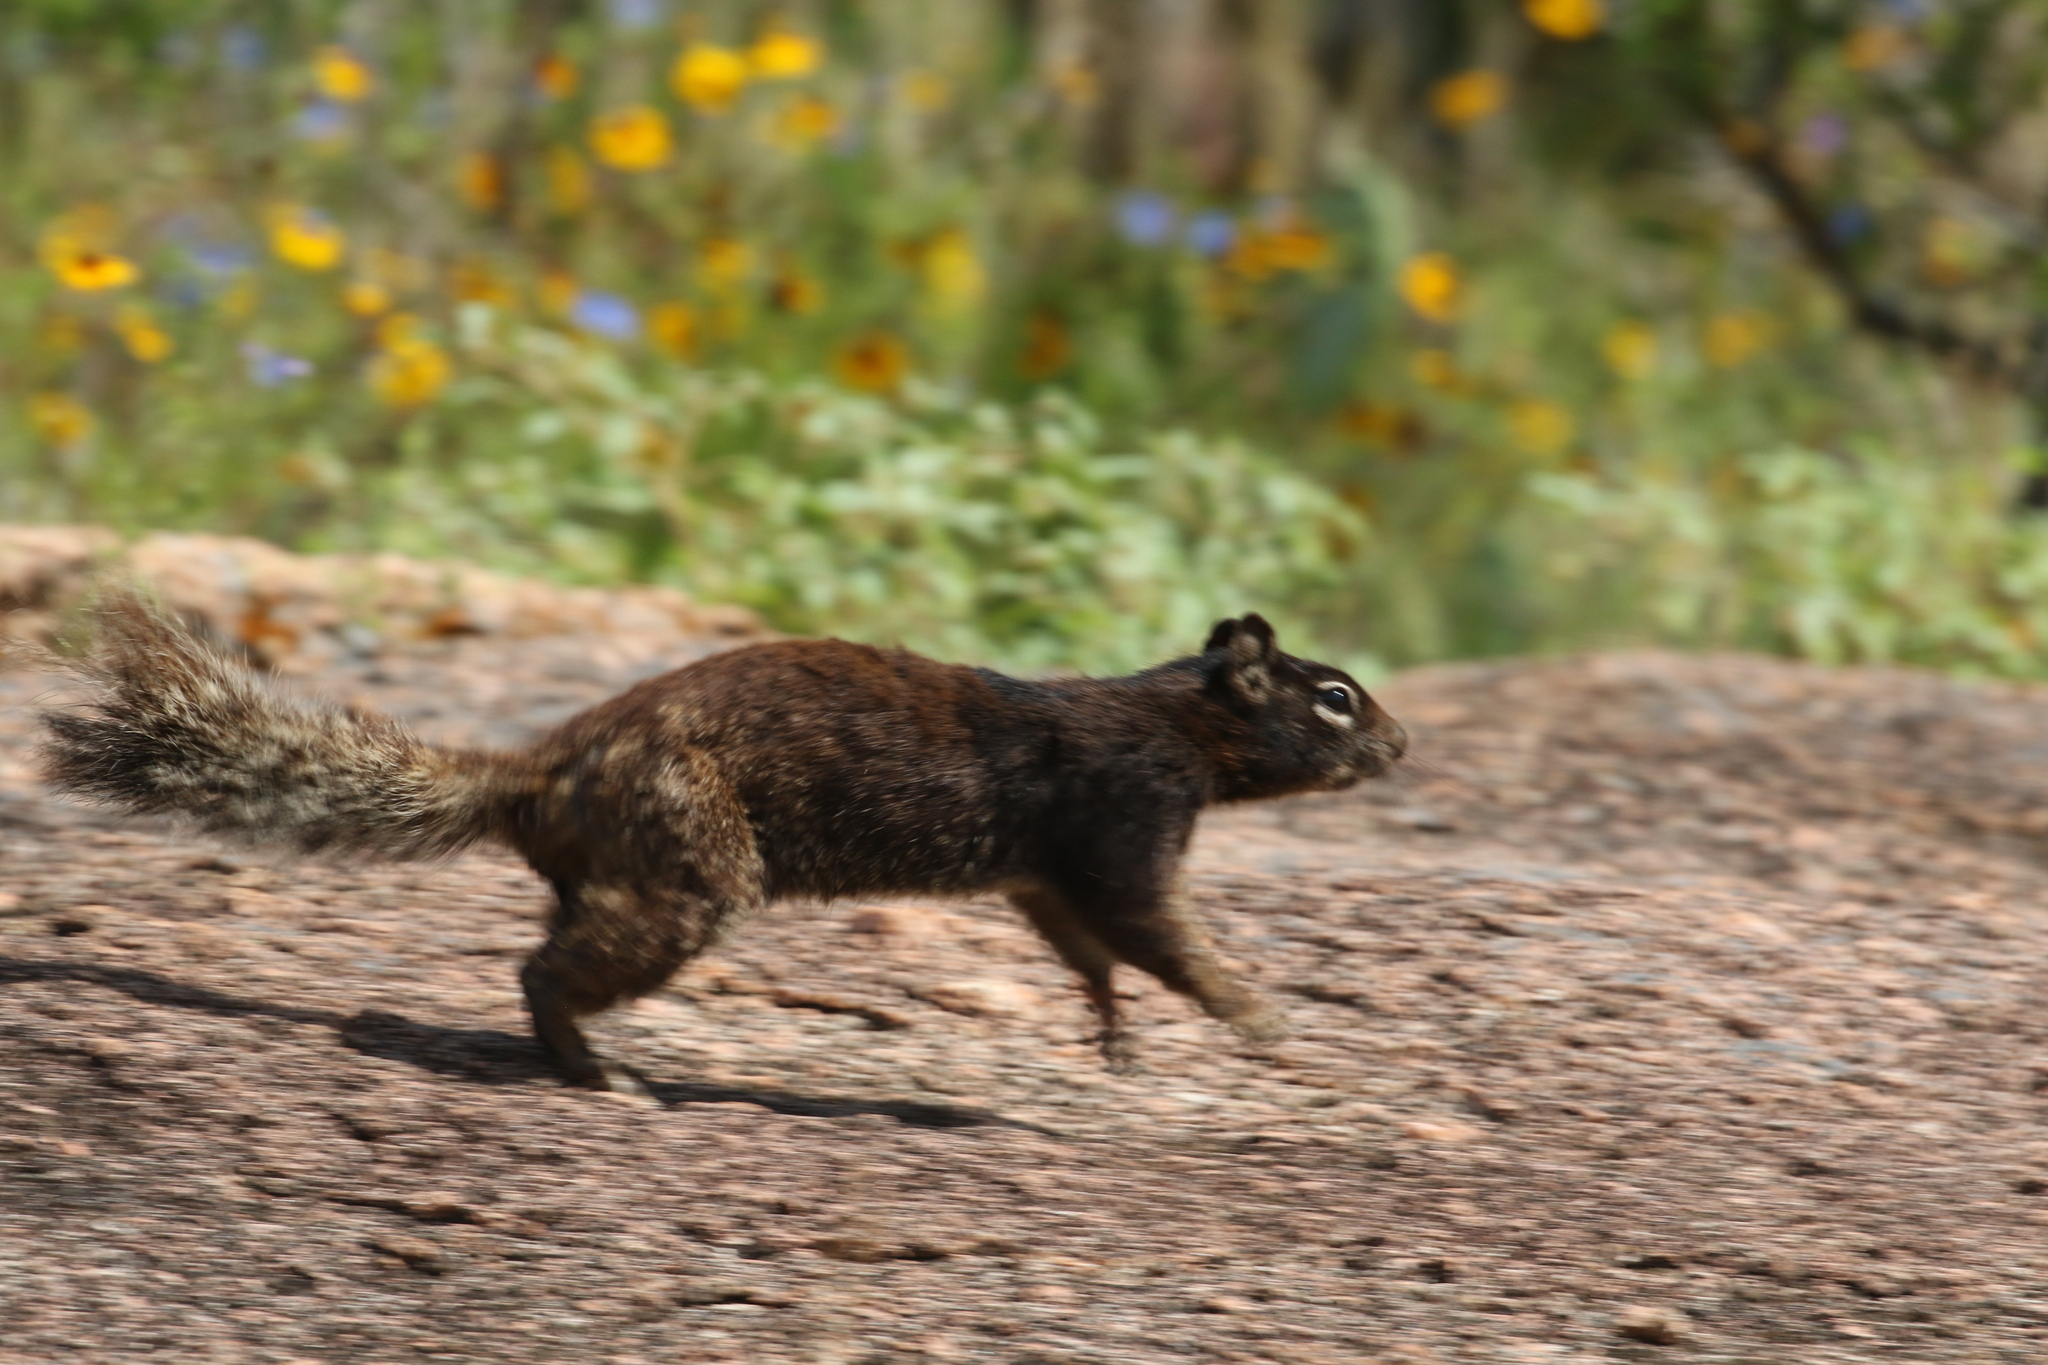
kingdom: Animalia
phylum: Chordata
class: Mammalia
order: Rodentia
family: Sciuridae
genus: Otospermophilus
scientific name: Otospermophilus variegatus
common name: Rock squirrel
